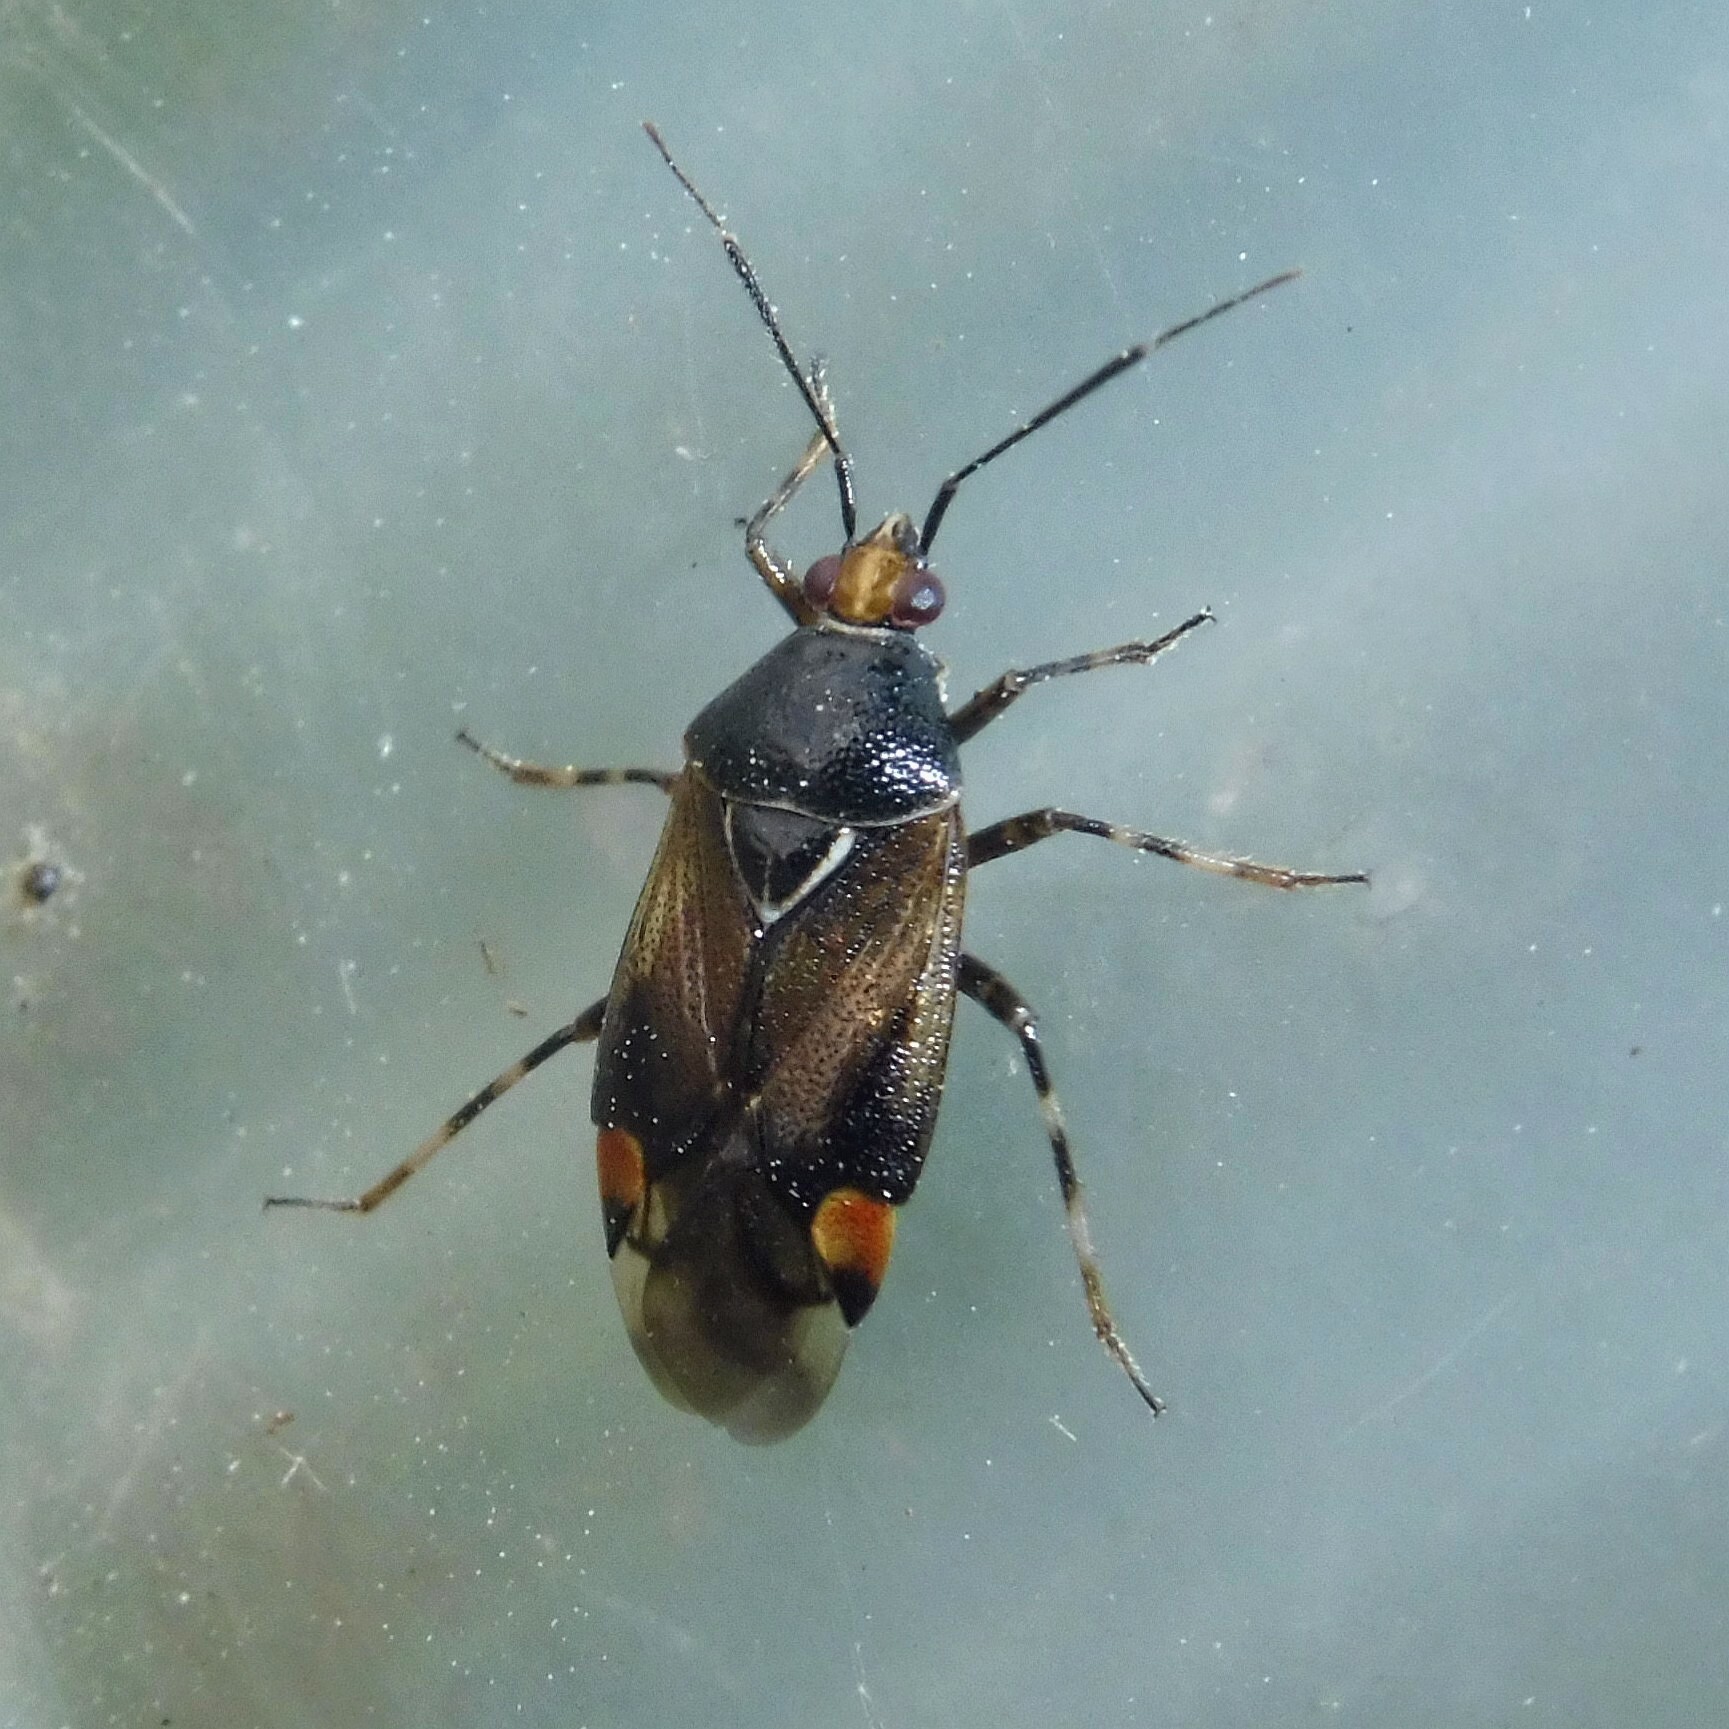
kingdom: Animalia
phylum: Arthropoda
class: Insecta
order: Hemiptera
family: Miridae
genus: Deraeocoris
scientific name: Deraeocoris flavilinea
